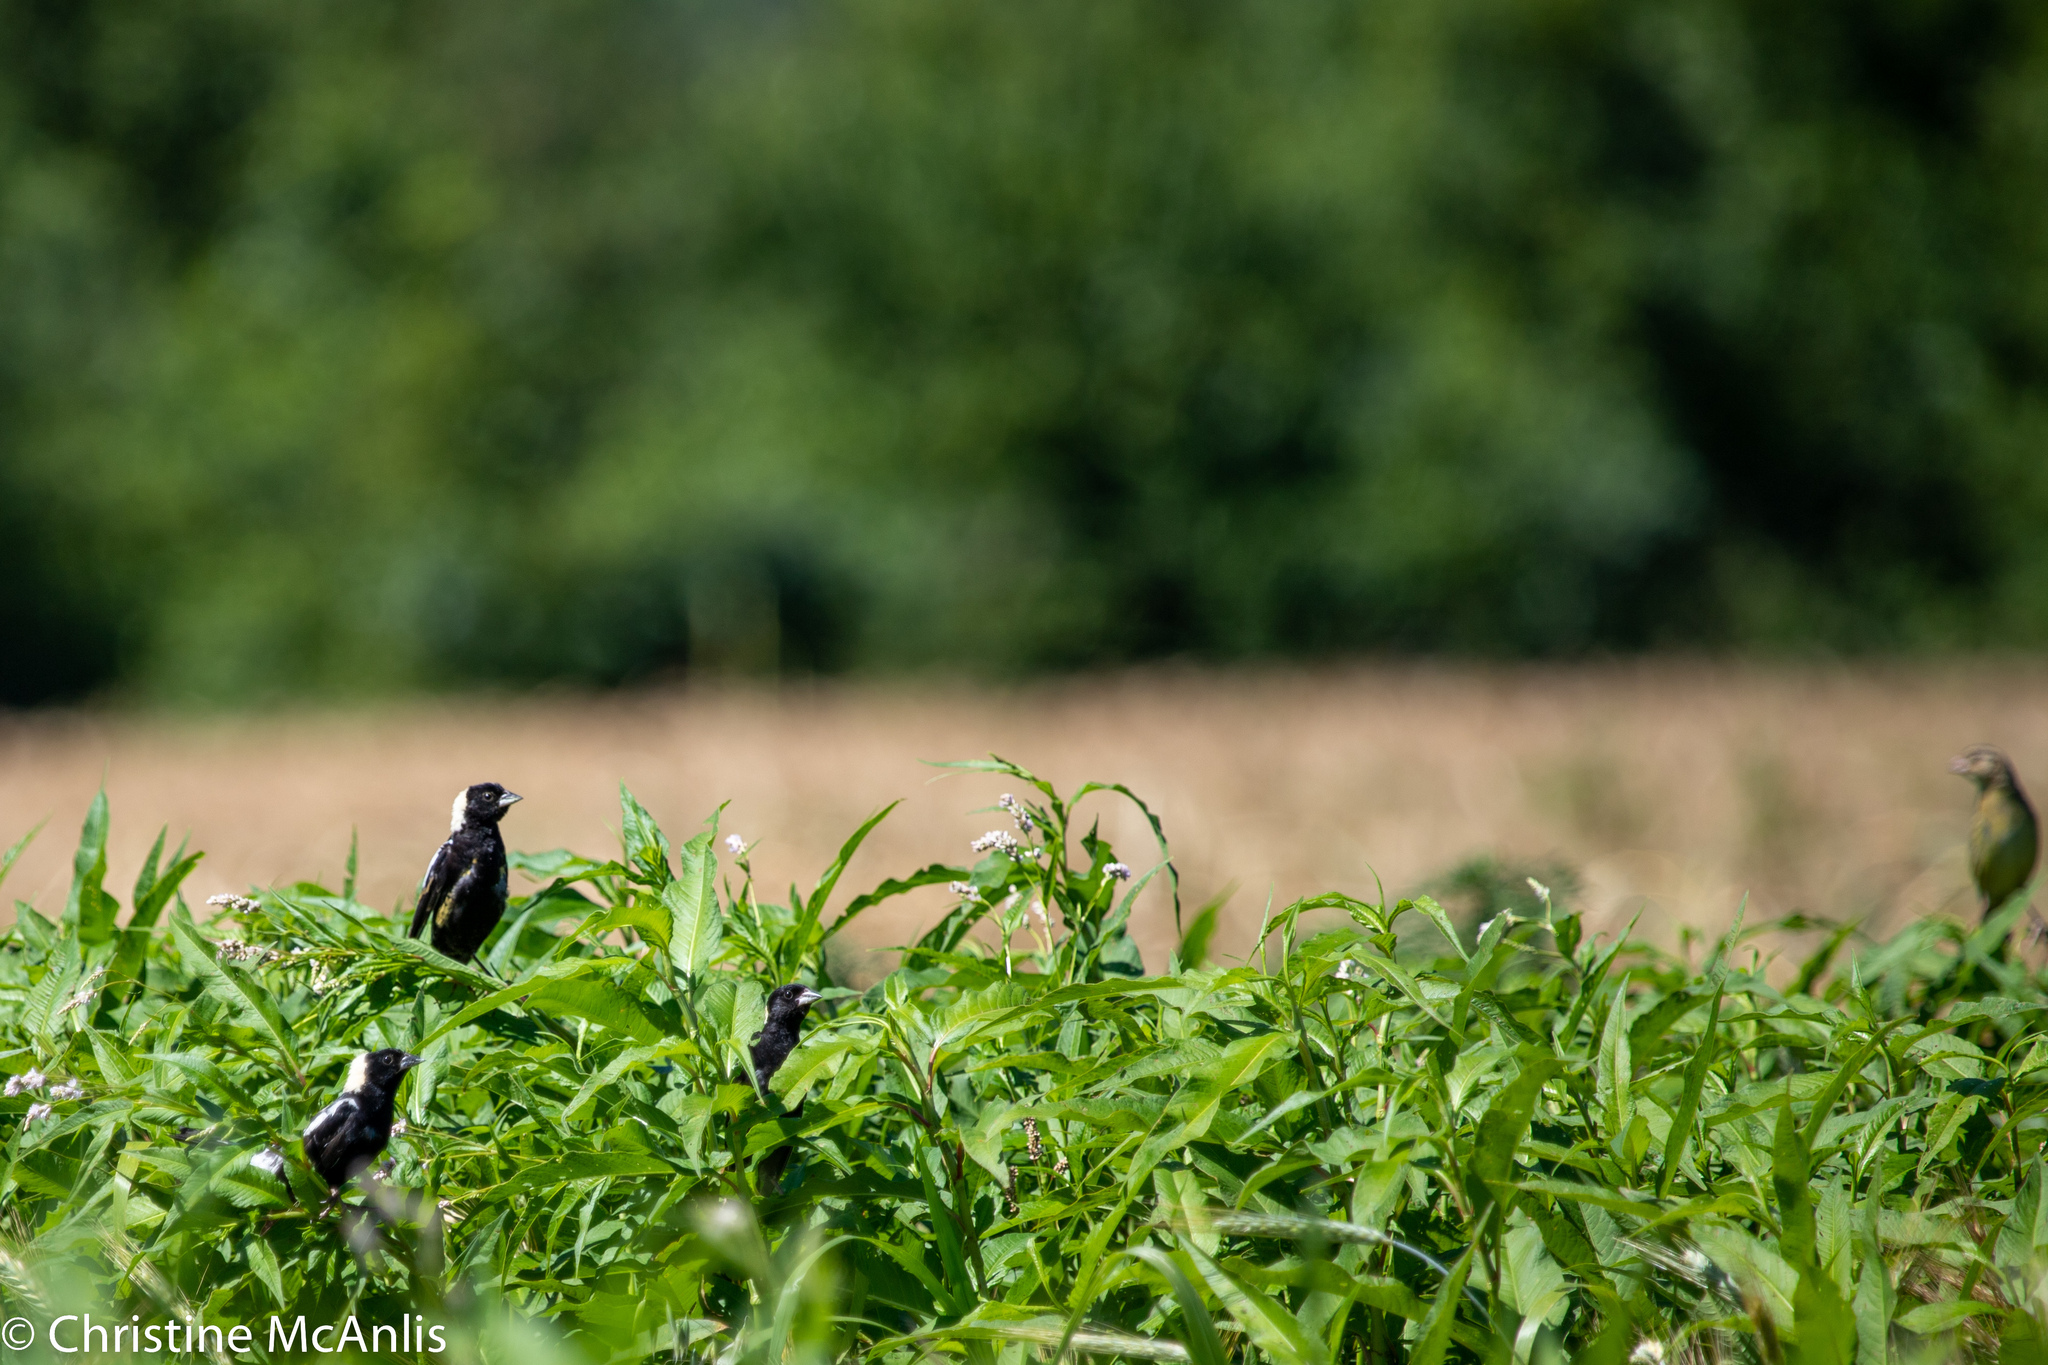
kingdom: Animalia
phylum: Chordata
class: Aves
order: Passeriformes
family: Icteridae
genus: Dolichonyx
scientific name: Dolichonyx oryzivorus
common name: Bobolink
